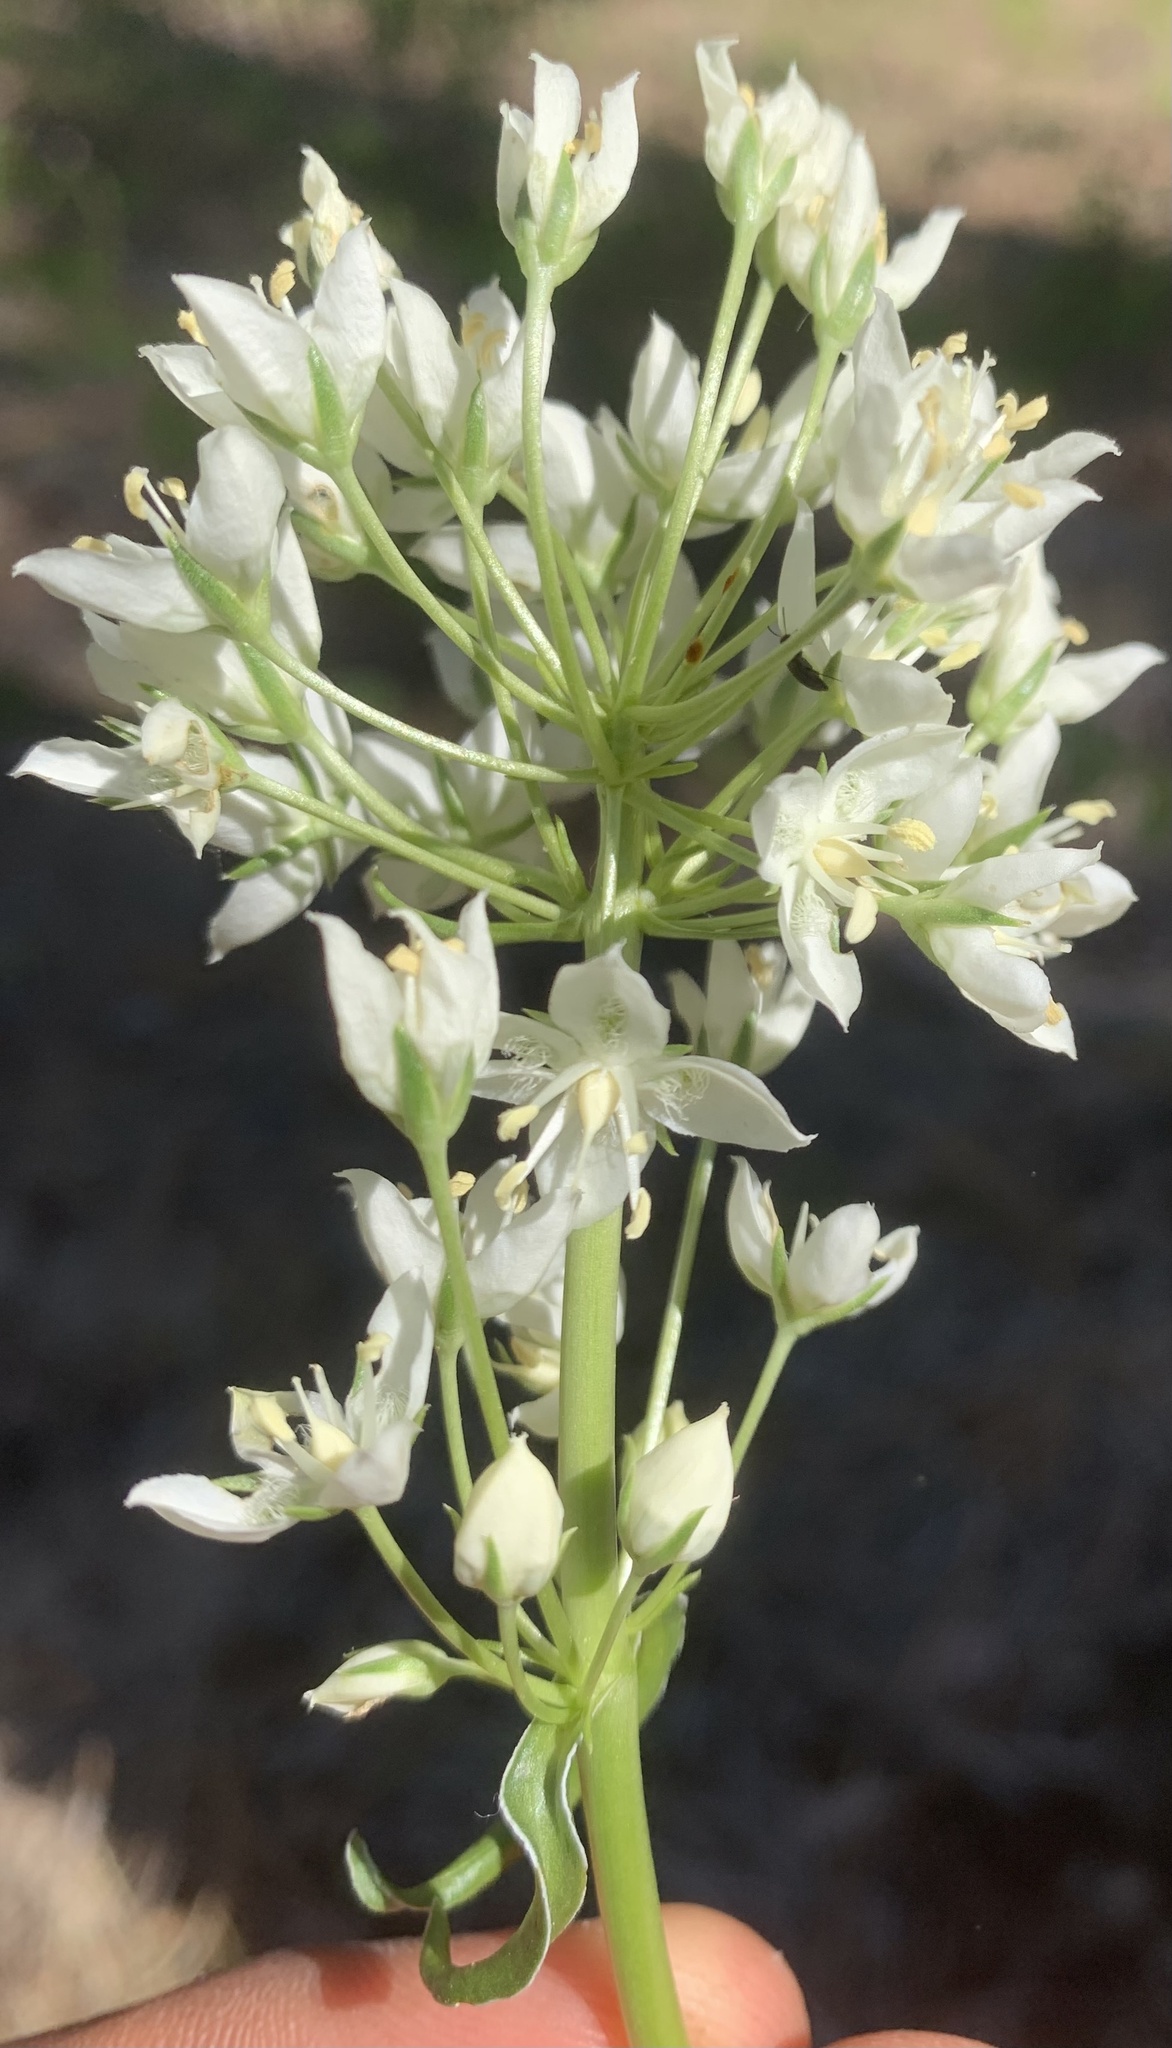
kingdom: Plantae
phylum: Tracheophyta
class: Magnoliopsida
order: Gentianales
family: Gentianaceae
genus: Frasera
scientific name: Frasera montana
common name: White frasera
